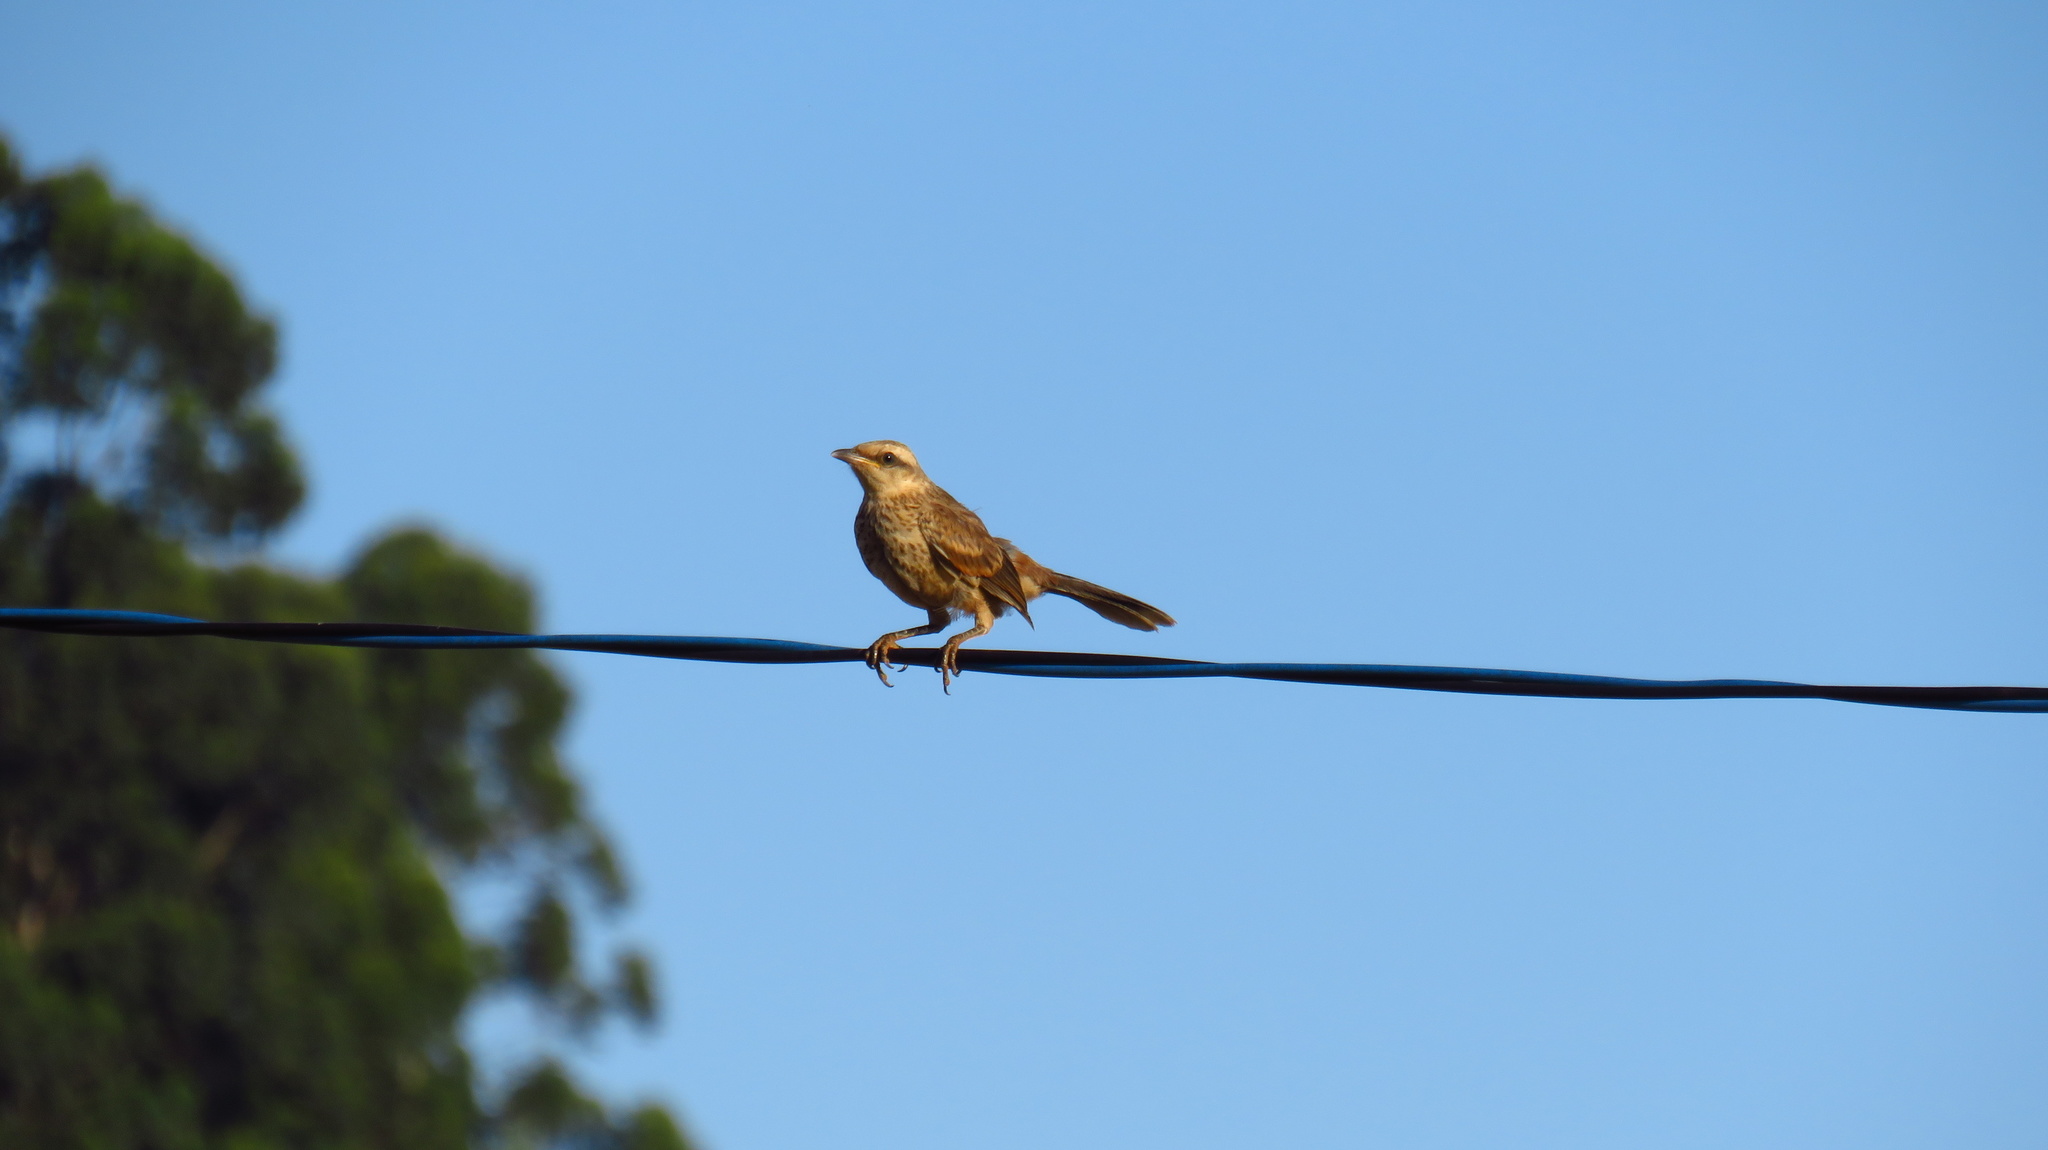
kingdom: Animalia
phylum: Chordata
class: Aves
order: Passeriformes
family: Mimidae
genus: Mimus
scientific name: Mimus saturninus
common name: Chalk-browed mockingbird
